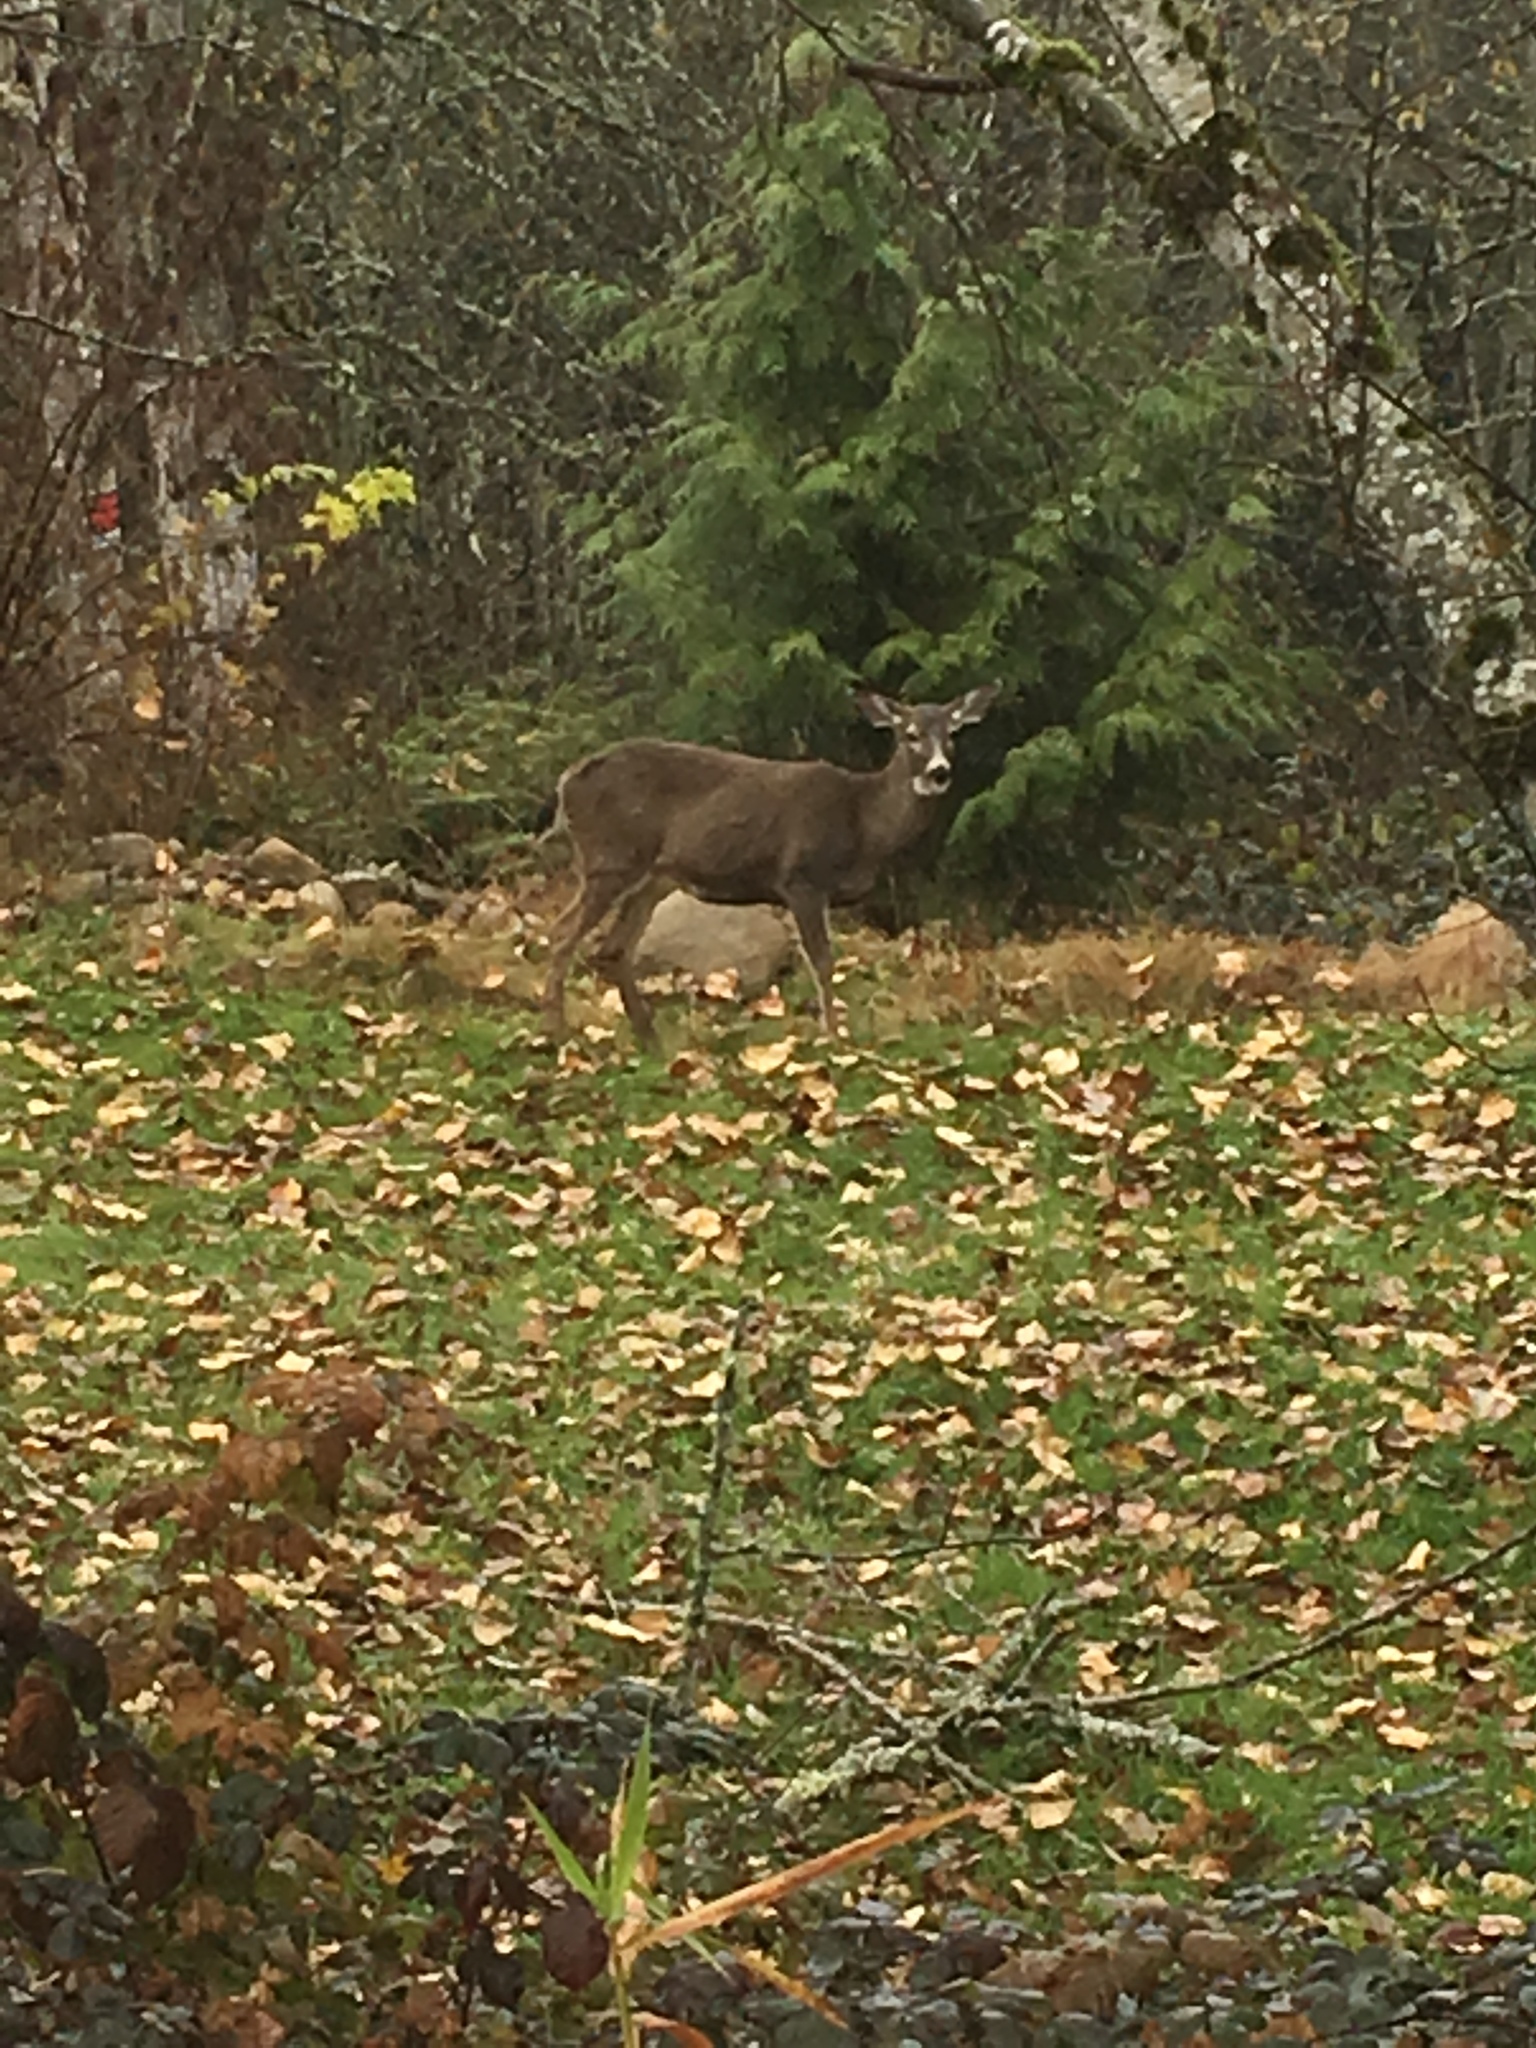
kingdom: Animalia
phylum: Chordata
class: Mammalia
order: Artiodactyla
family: Cervidae
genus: Odocoileus
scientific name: Odocoileus hemionus
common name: Mule deer
